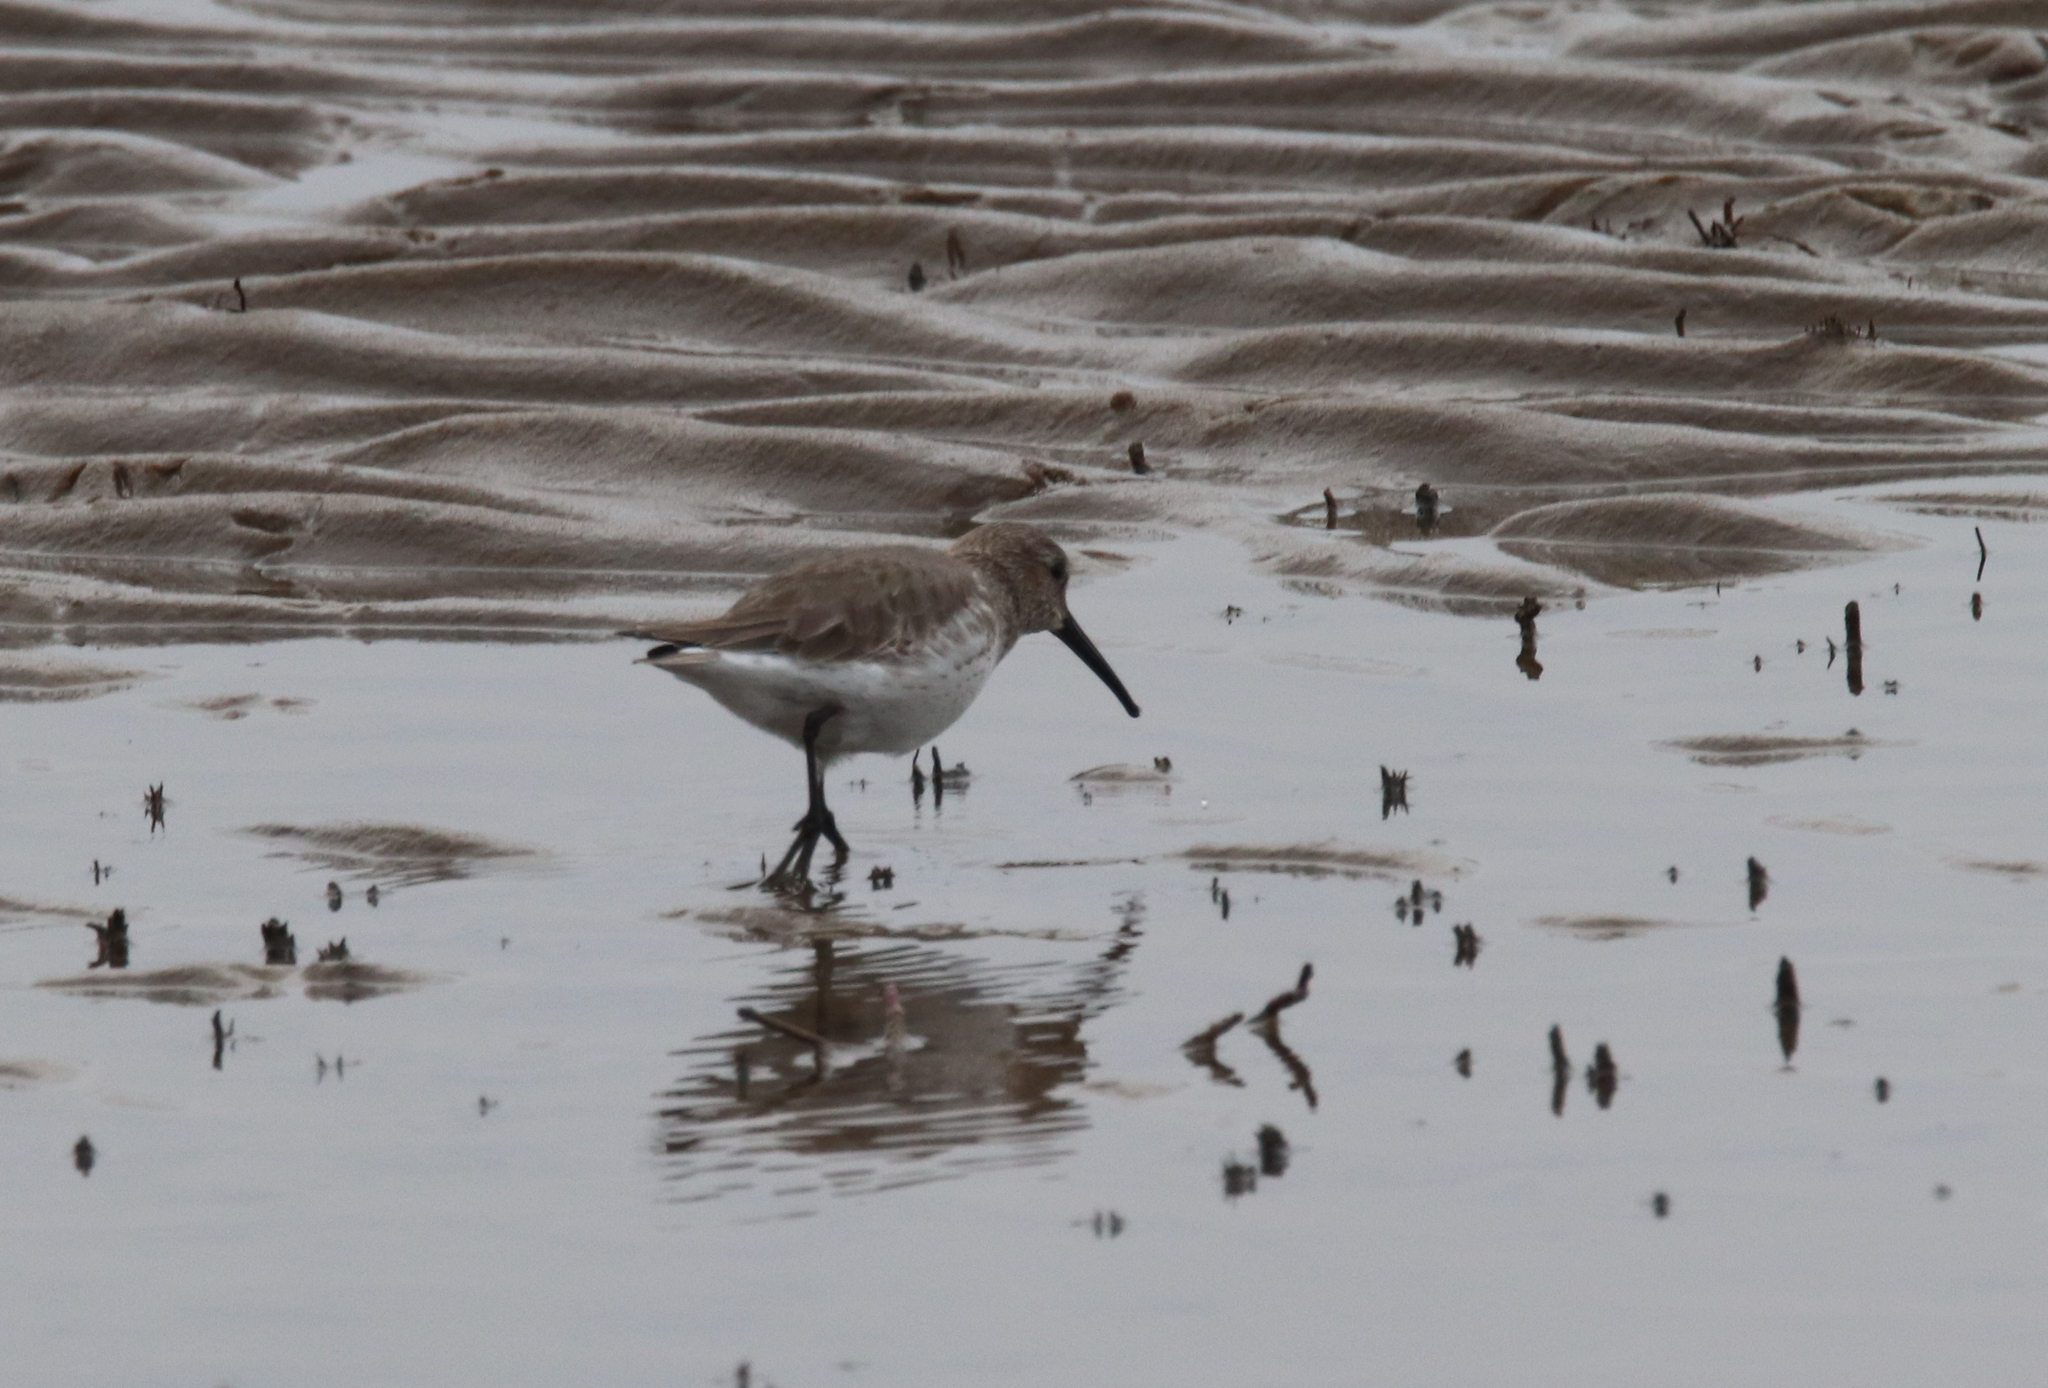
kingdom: Animalia
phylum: Chordata
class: Aves
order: Charadriiformes
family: Scolopacidae
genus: Calidris
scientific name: Calidris alpina
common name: Dunlin
